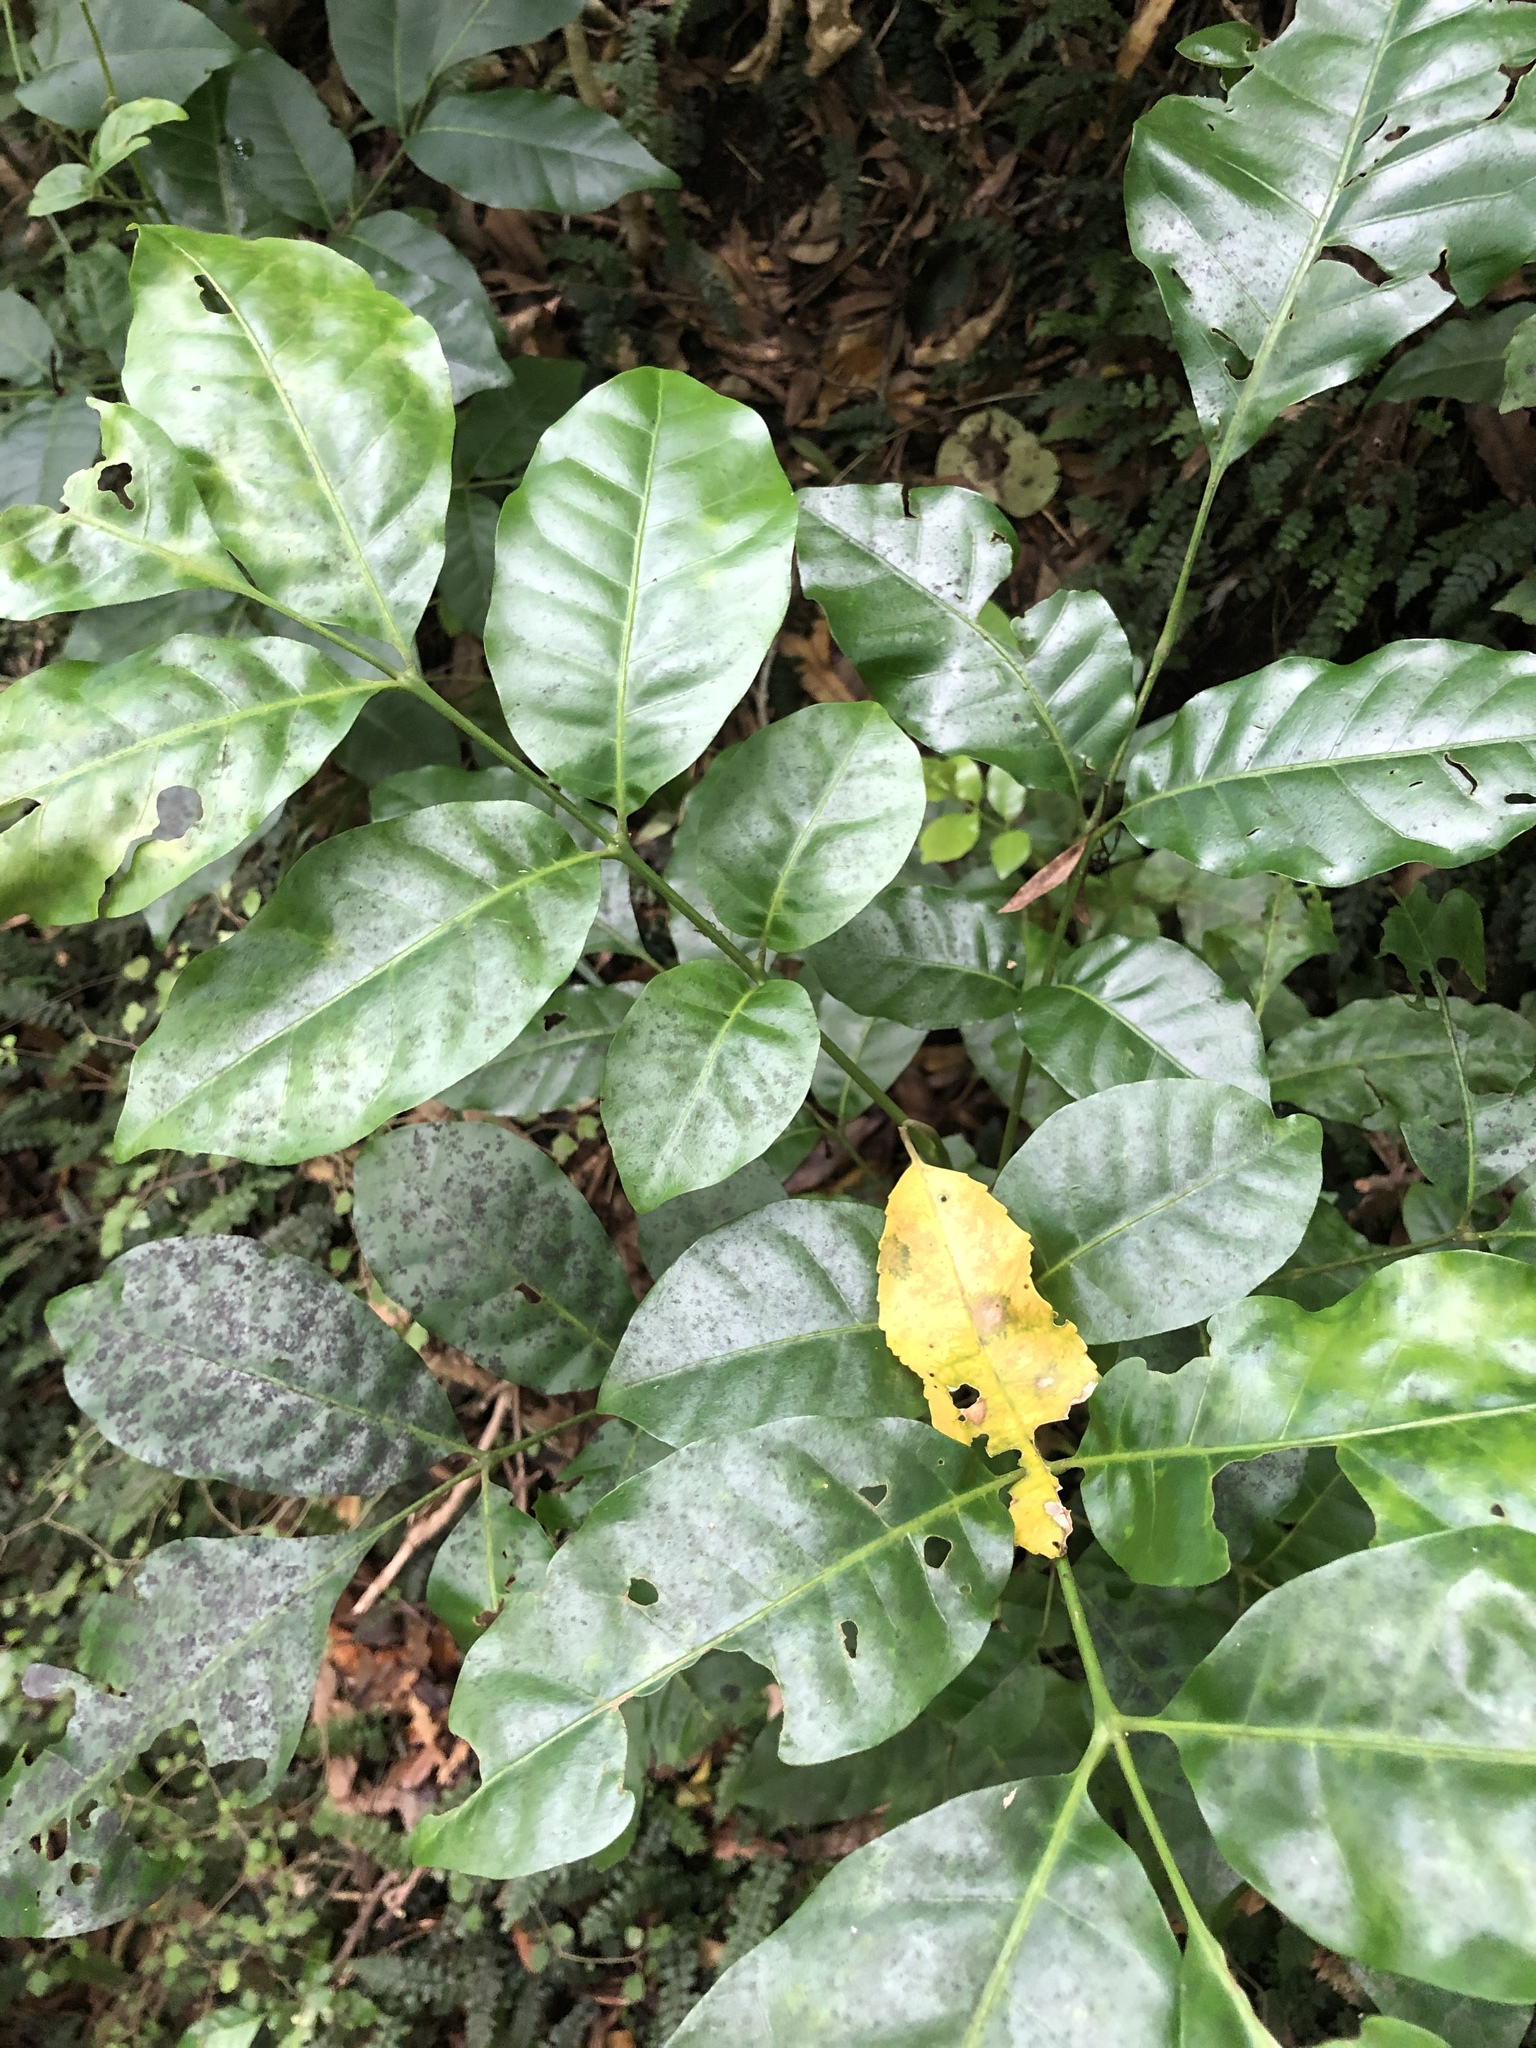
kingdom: Plantae
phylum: Tracheophyta
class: Magnoliopsida
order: Sapindales
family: Meliaceae
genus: Didymocheton
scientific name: Didymocheton spectabilis
